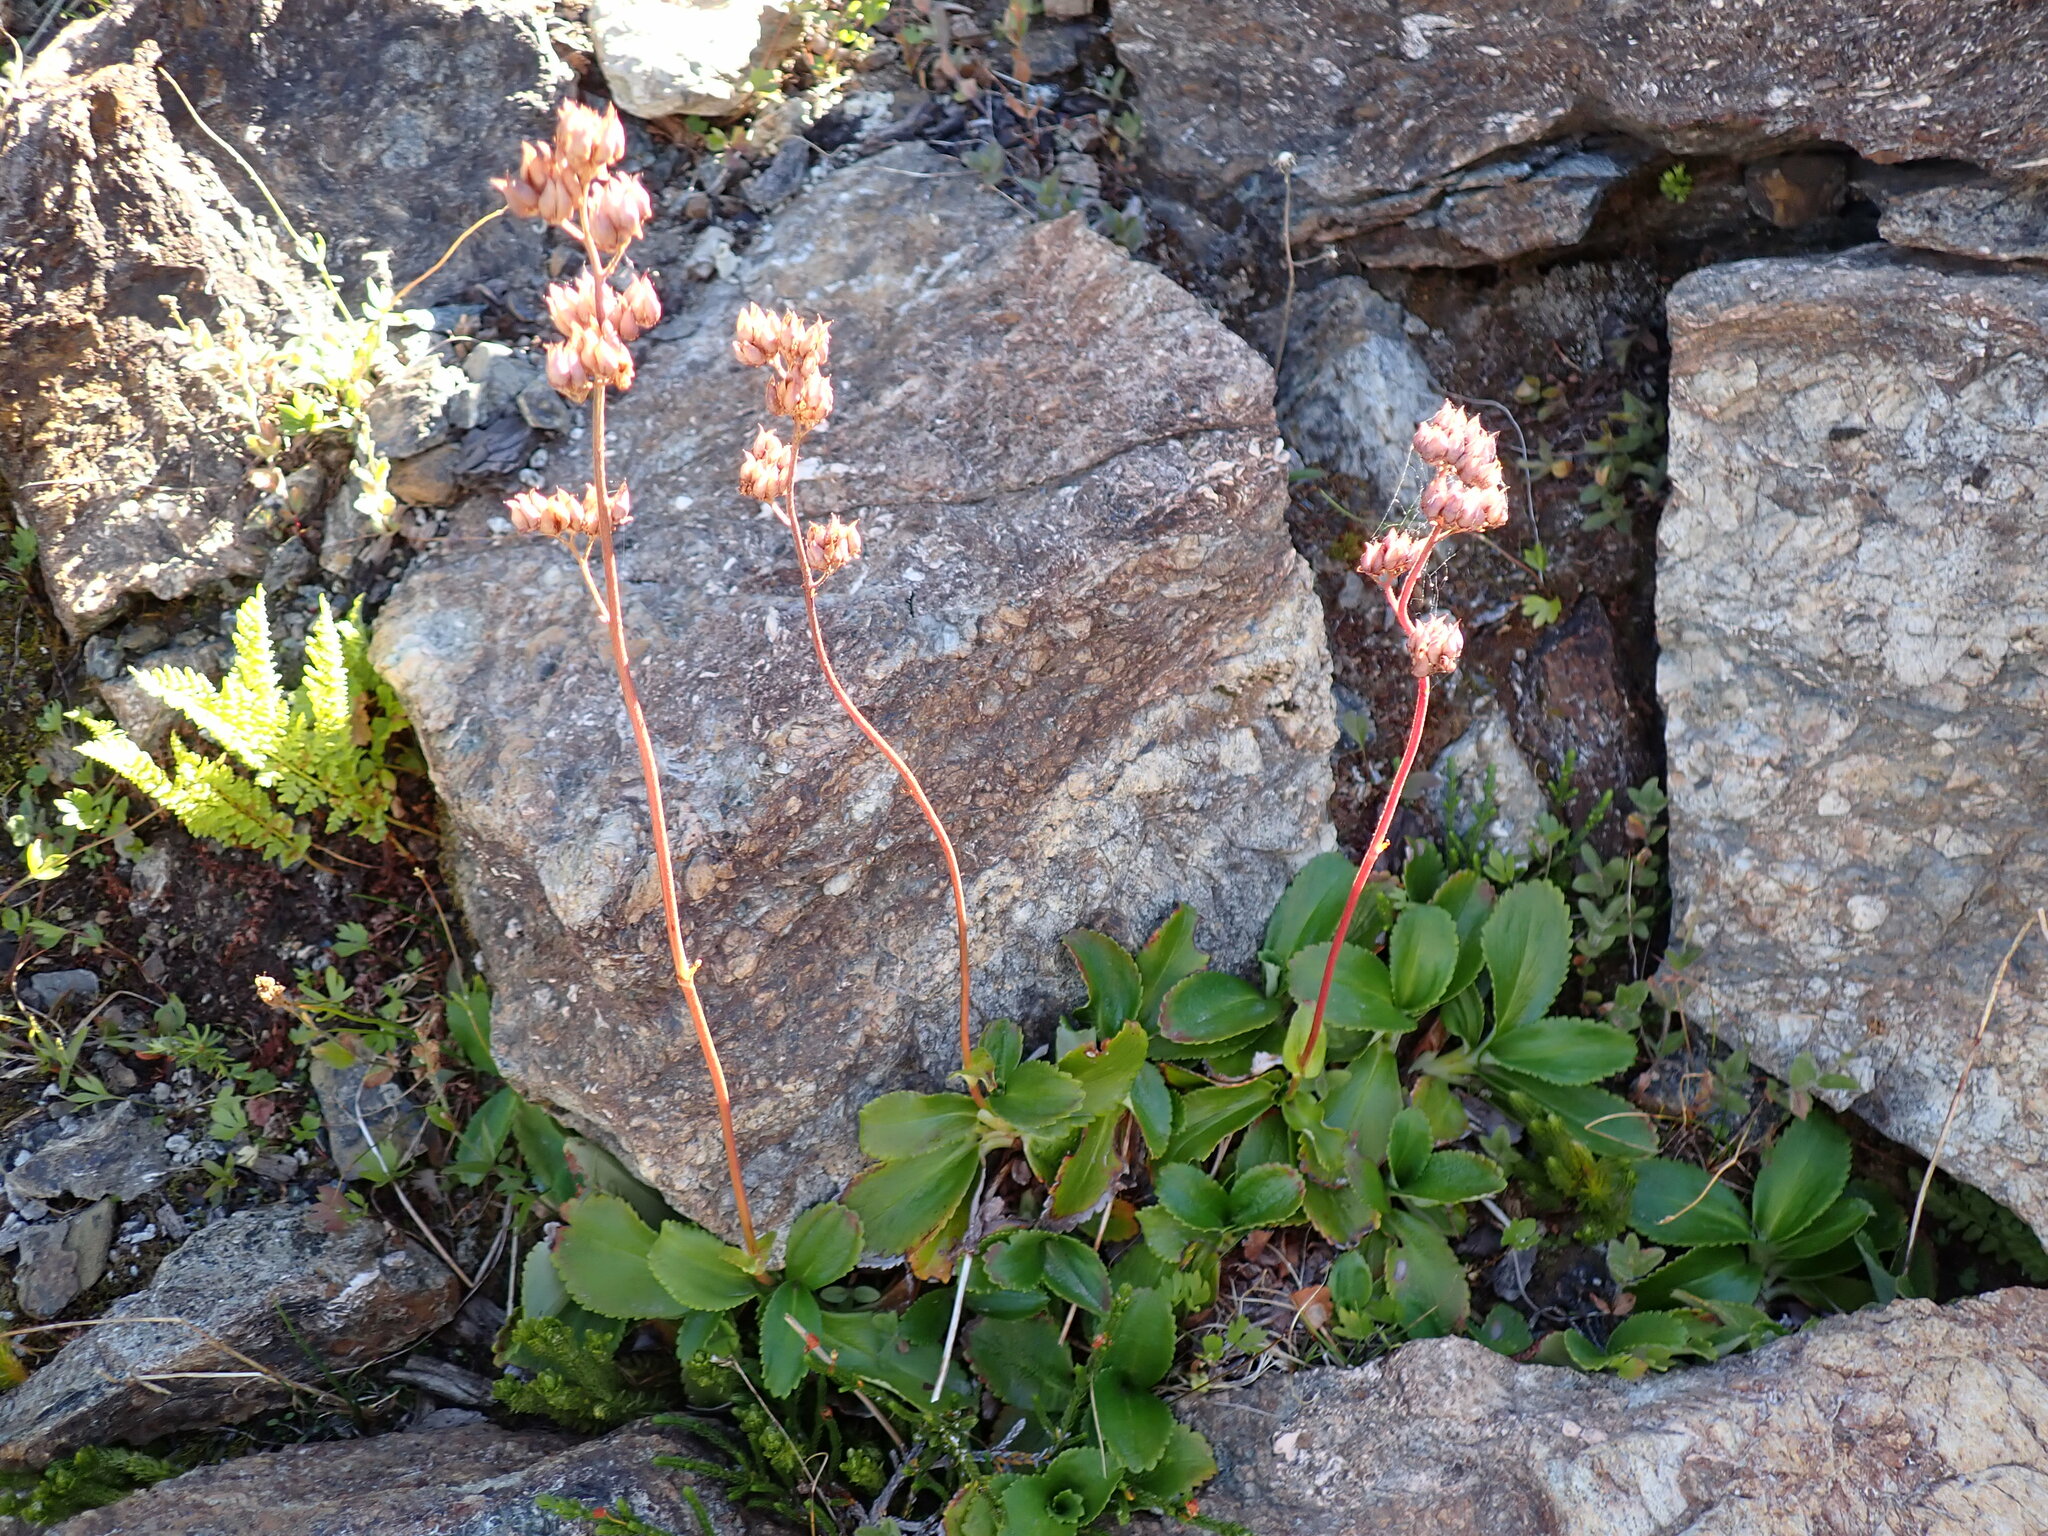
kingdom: Plantae
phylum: Tracheophyta
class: Magnoliopsida
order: Saxifragales
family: Saxifragaceae
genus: Leptarrhena
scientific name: Leptarrhena pyrolifolia
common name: Leatherleaf-saxifrage
